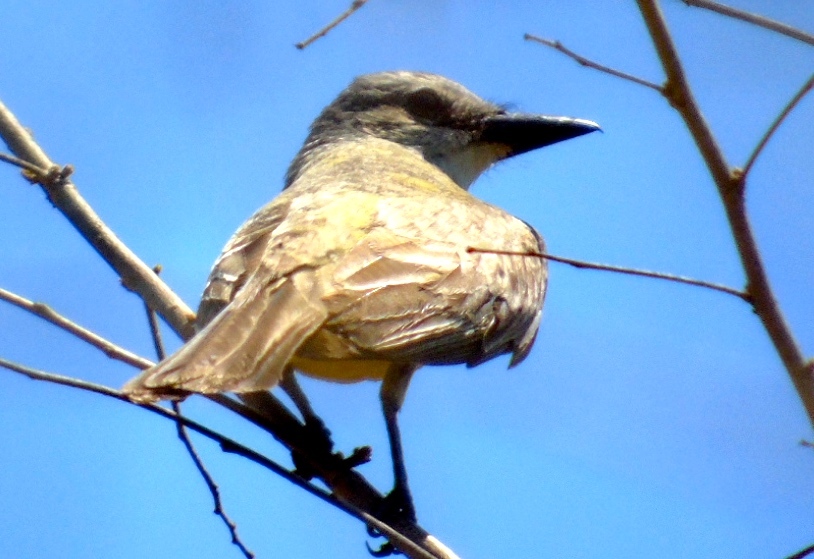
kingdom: Animalia
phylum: Chordata
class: Aves
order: Passeriformes
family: Tyrannidae
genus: Tyrannus
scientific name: Tyrannus melancholicus
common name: Tropical kingbird
